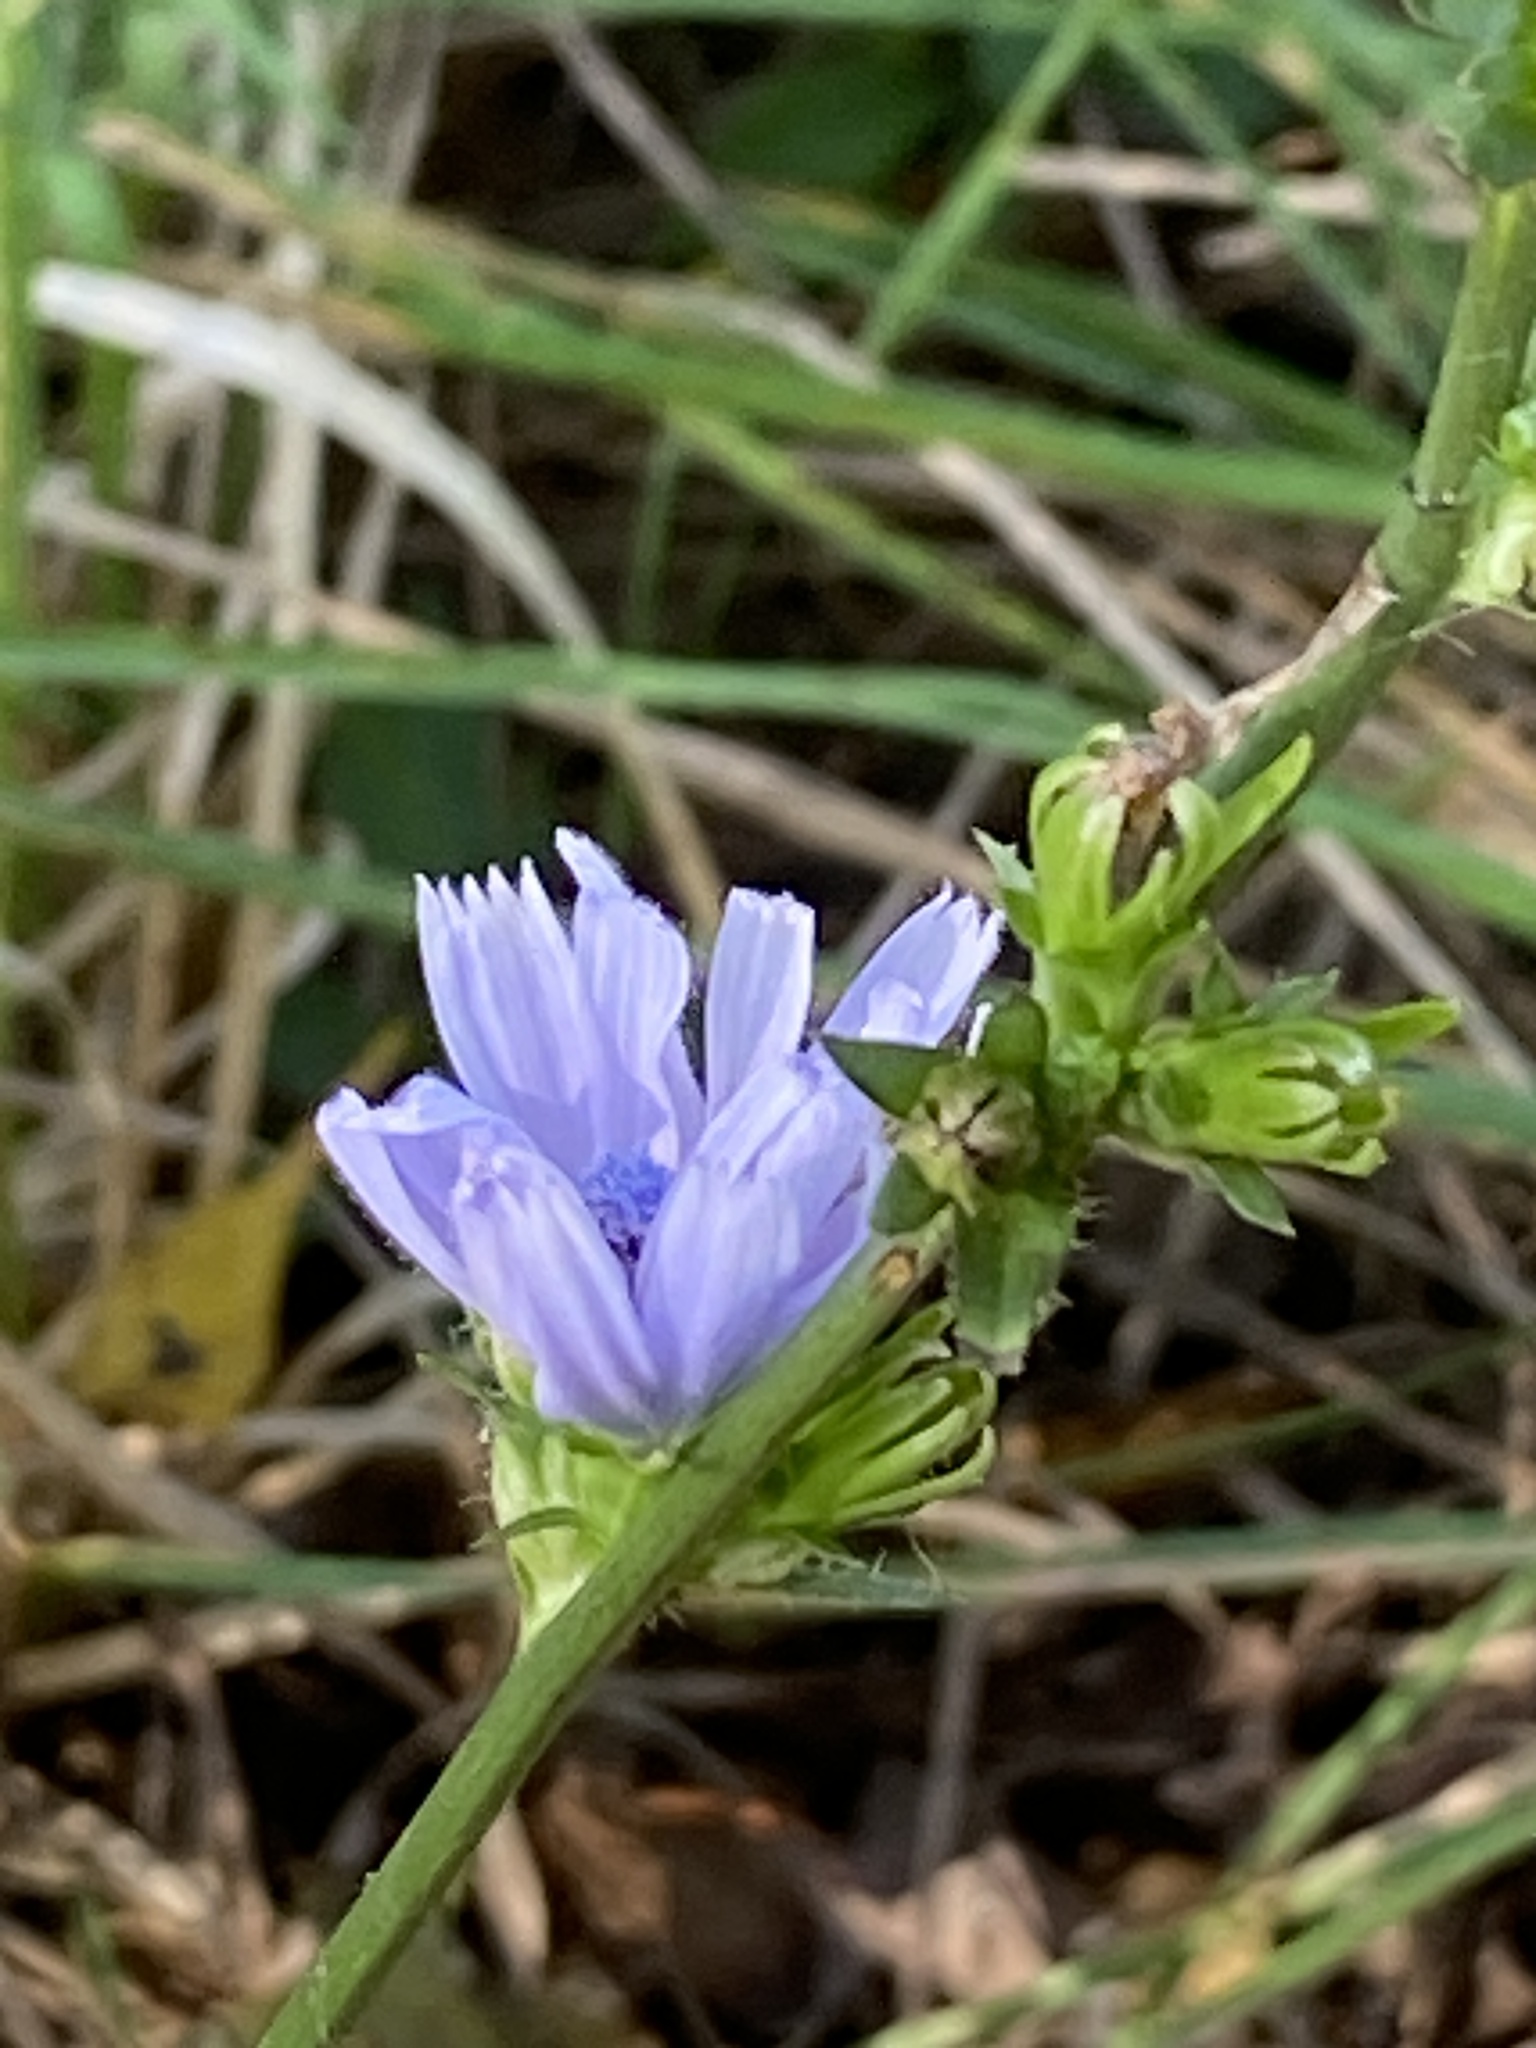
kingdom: Plantae
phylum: Tracheophyta
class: Magnoliopsida
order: Asterales
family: Asteraceae
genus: Cichorium
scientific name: Cichorium intybus
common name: Chicory
